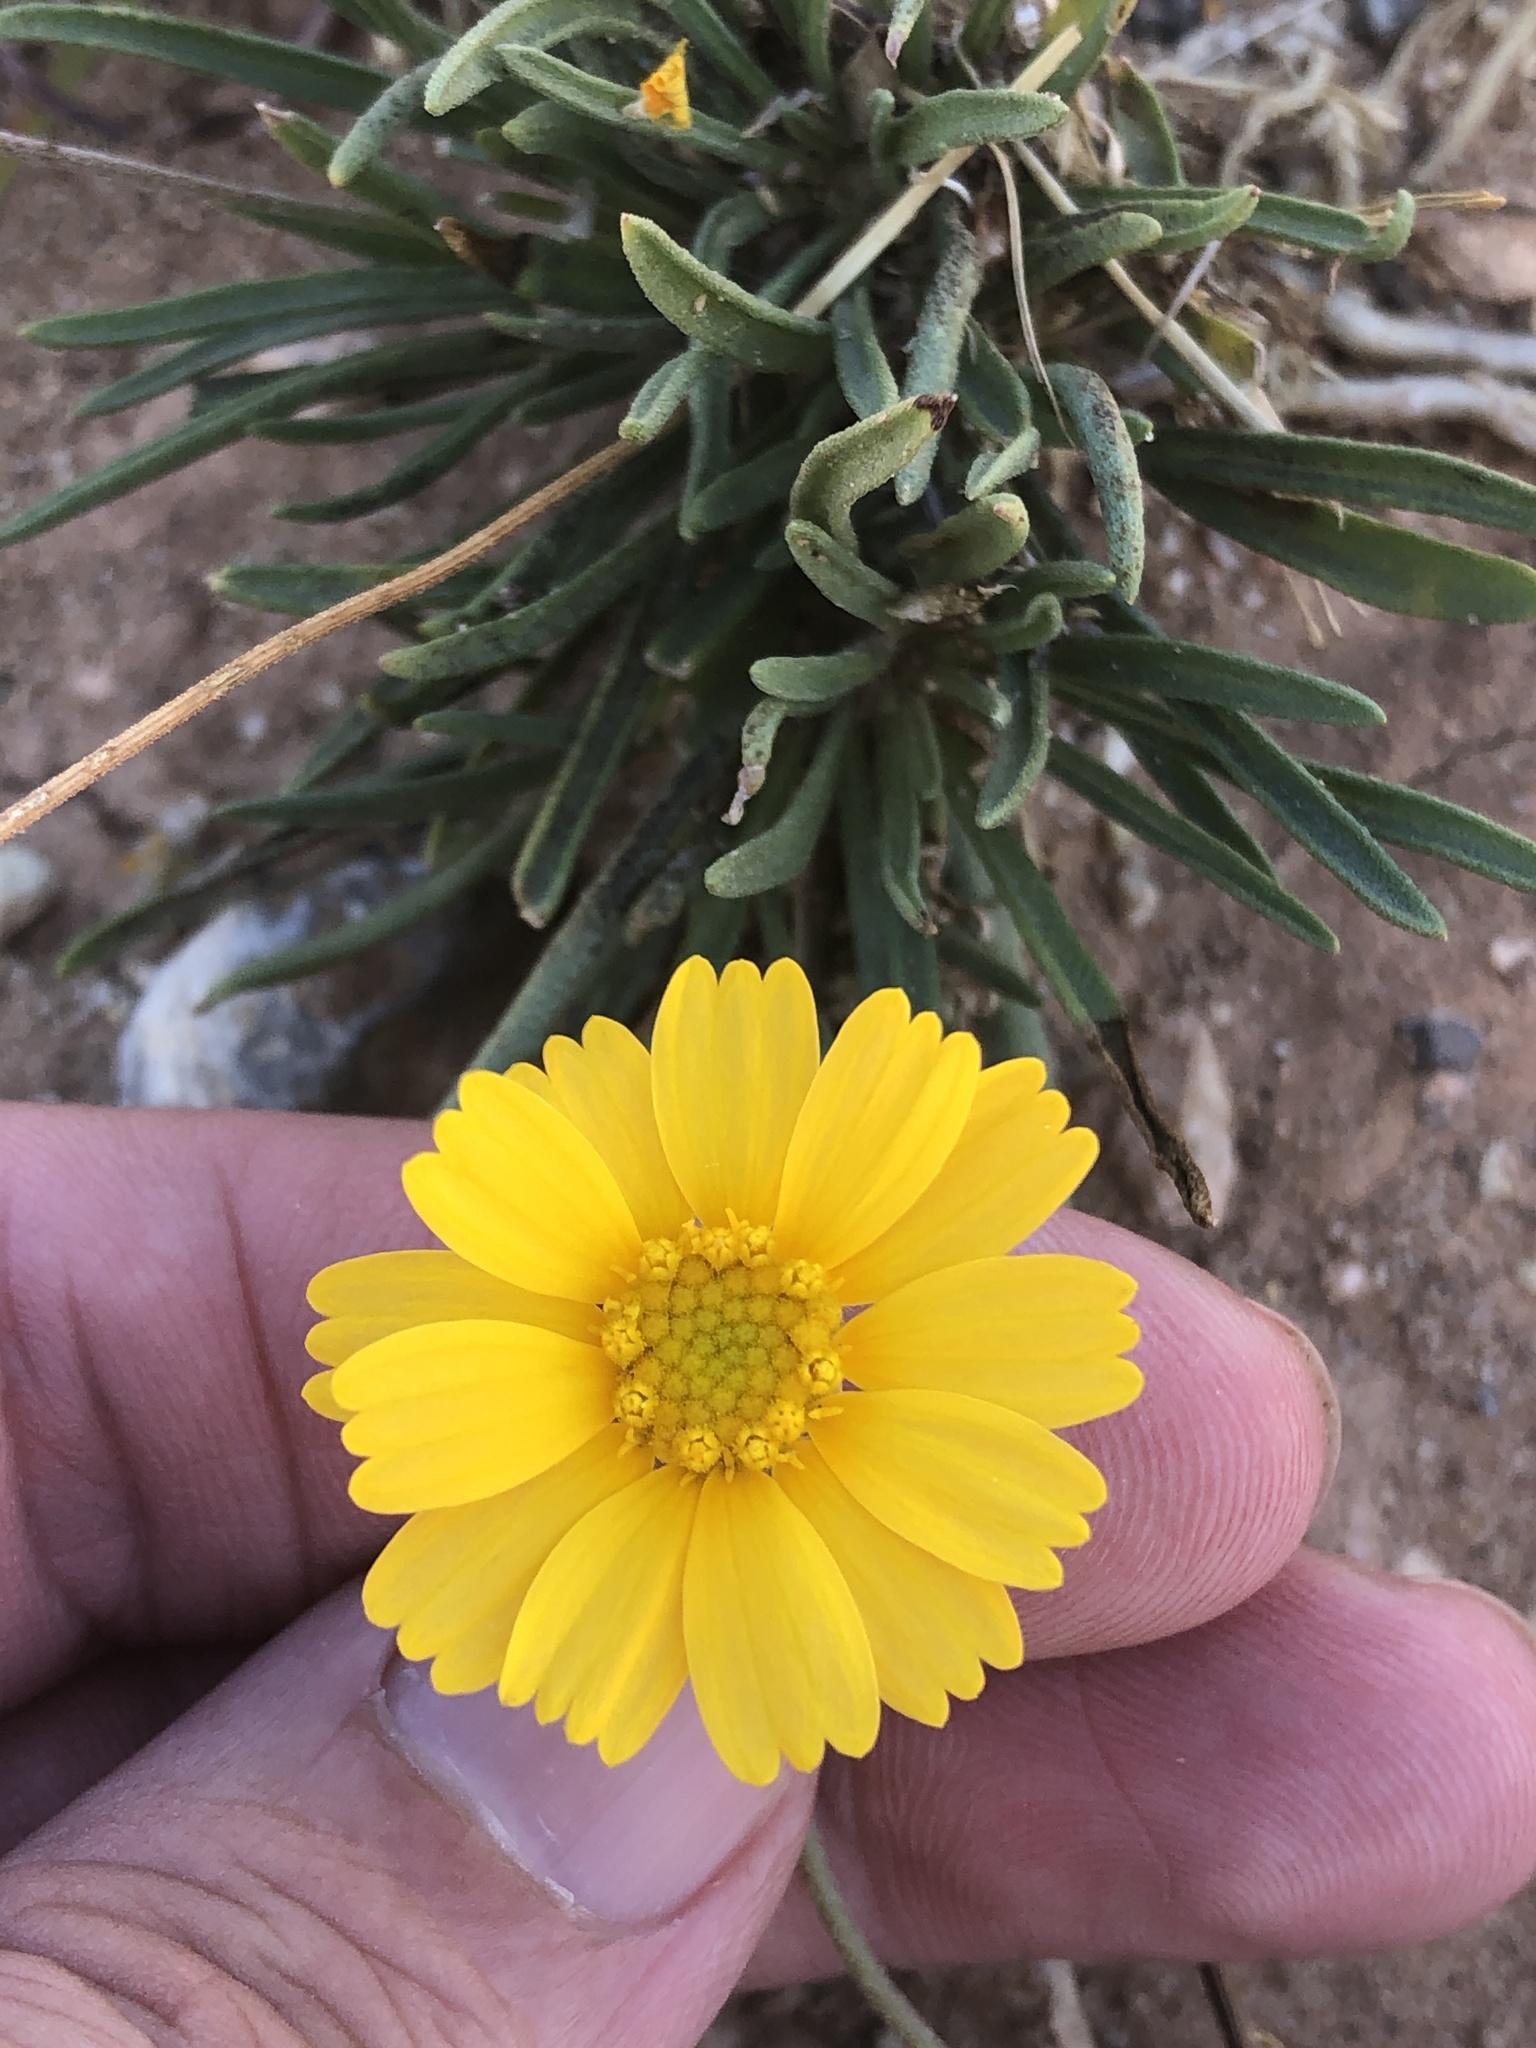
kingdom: Plantae
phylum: Tracheophyta
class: Magnoliopsida
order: Asterales
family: Asteraceae
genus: Tetraneuris
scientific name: Tetraneuris scaposa
